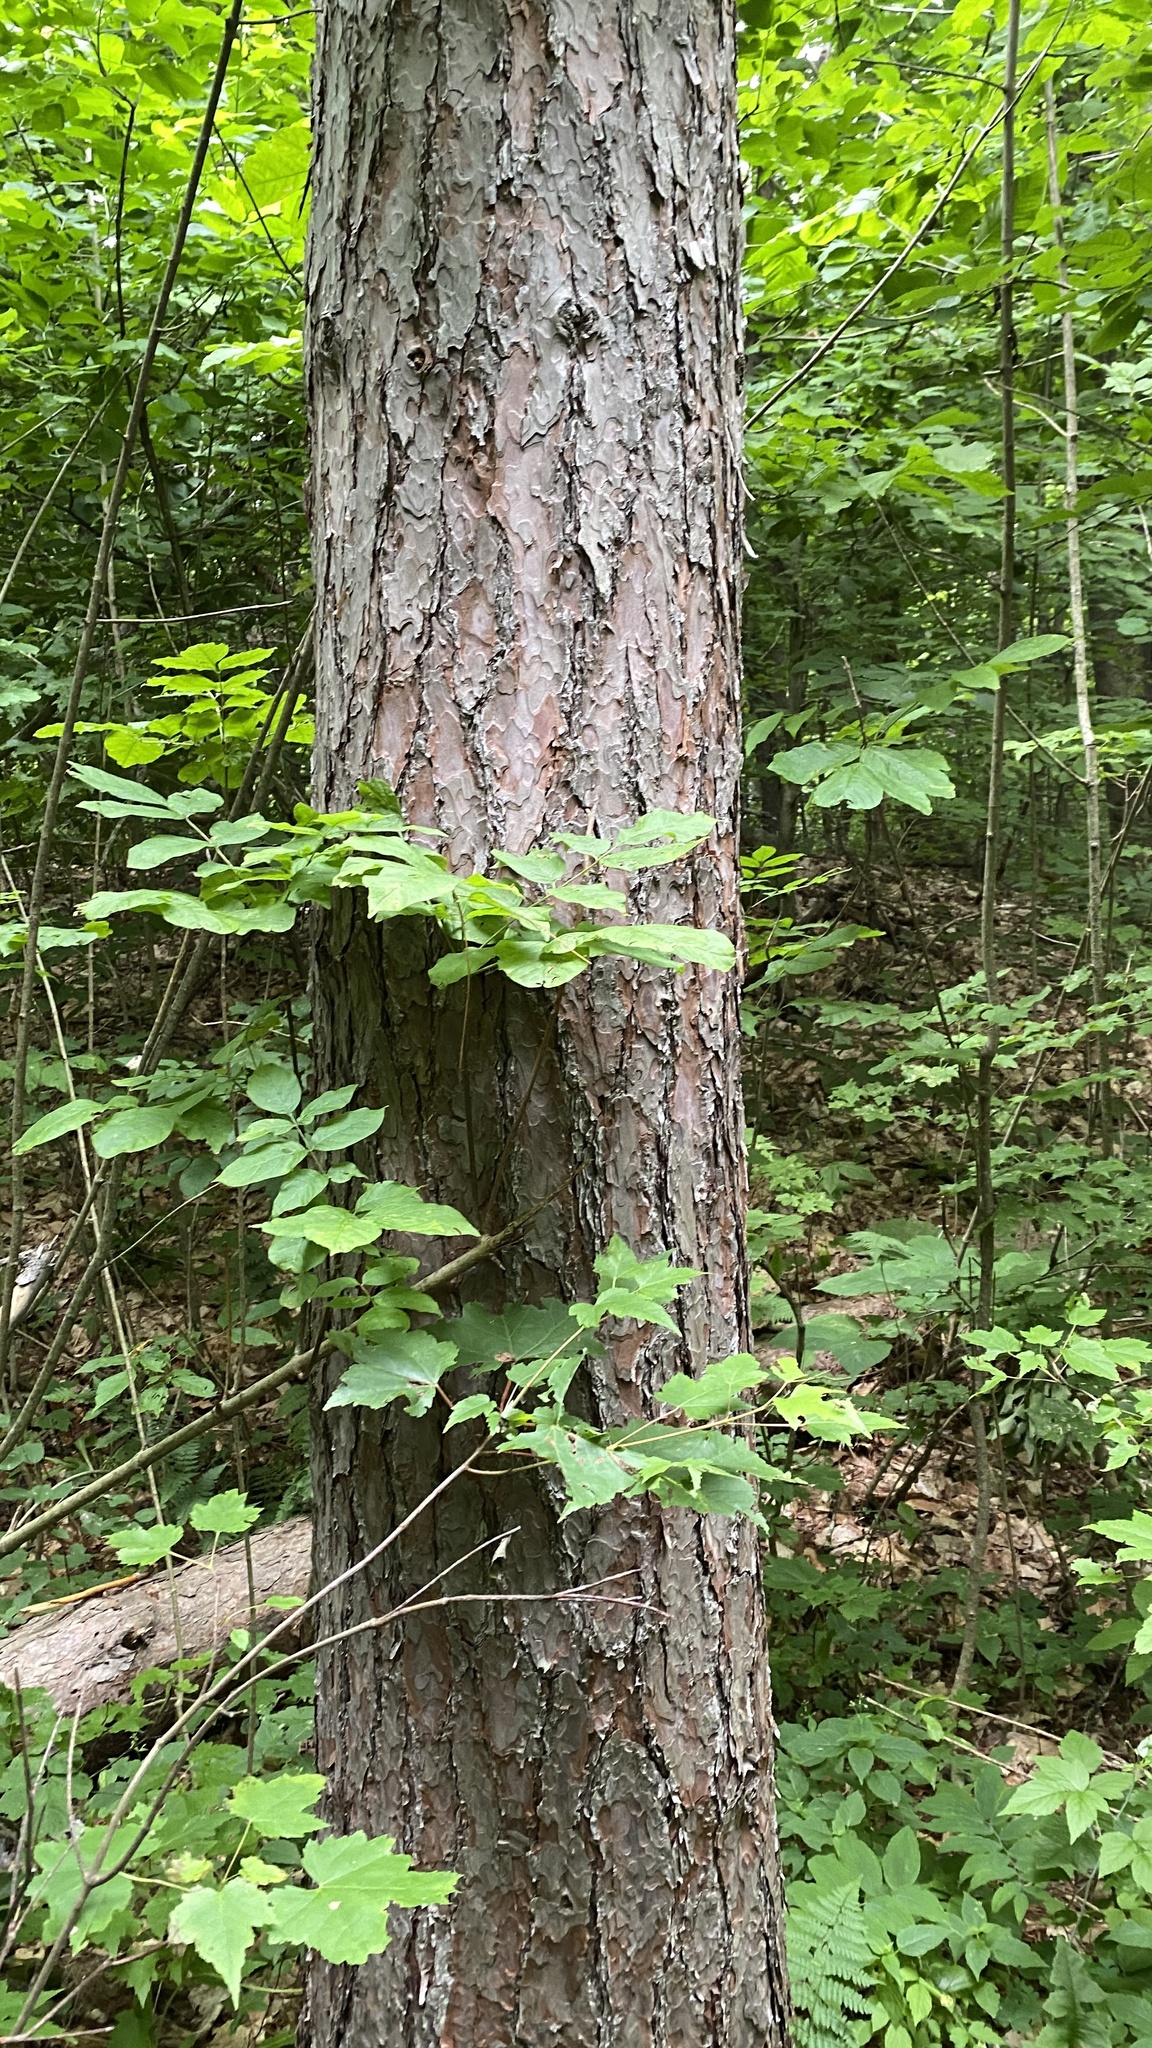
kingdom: Plantae
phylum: Tracheophyta
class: Pinopsida
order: Pinales
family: Pinaceae
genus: Pinus
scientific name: Pinus resinosa
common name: Norway pine
